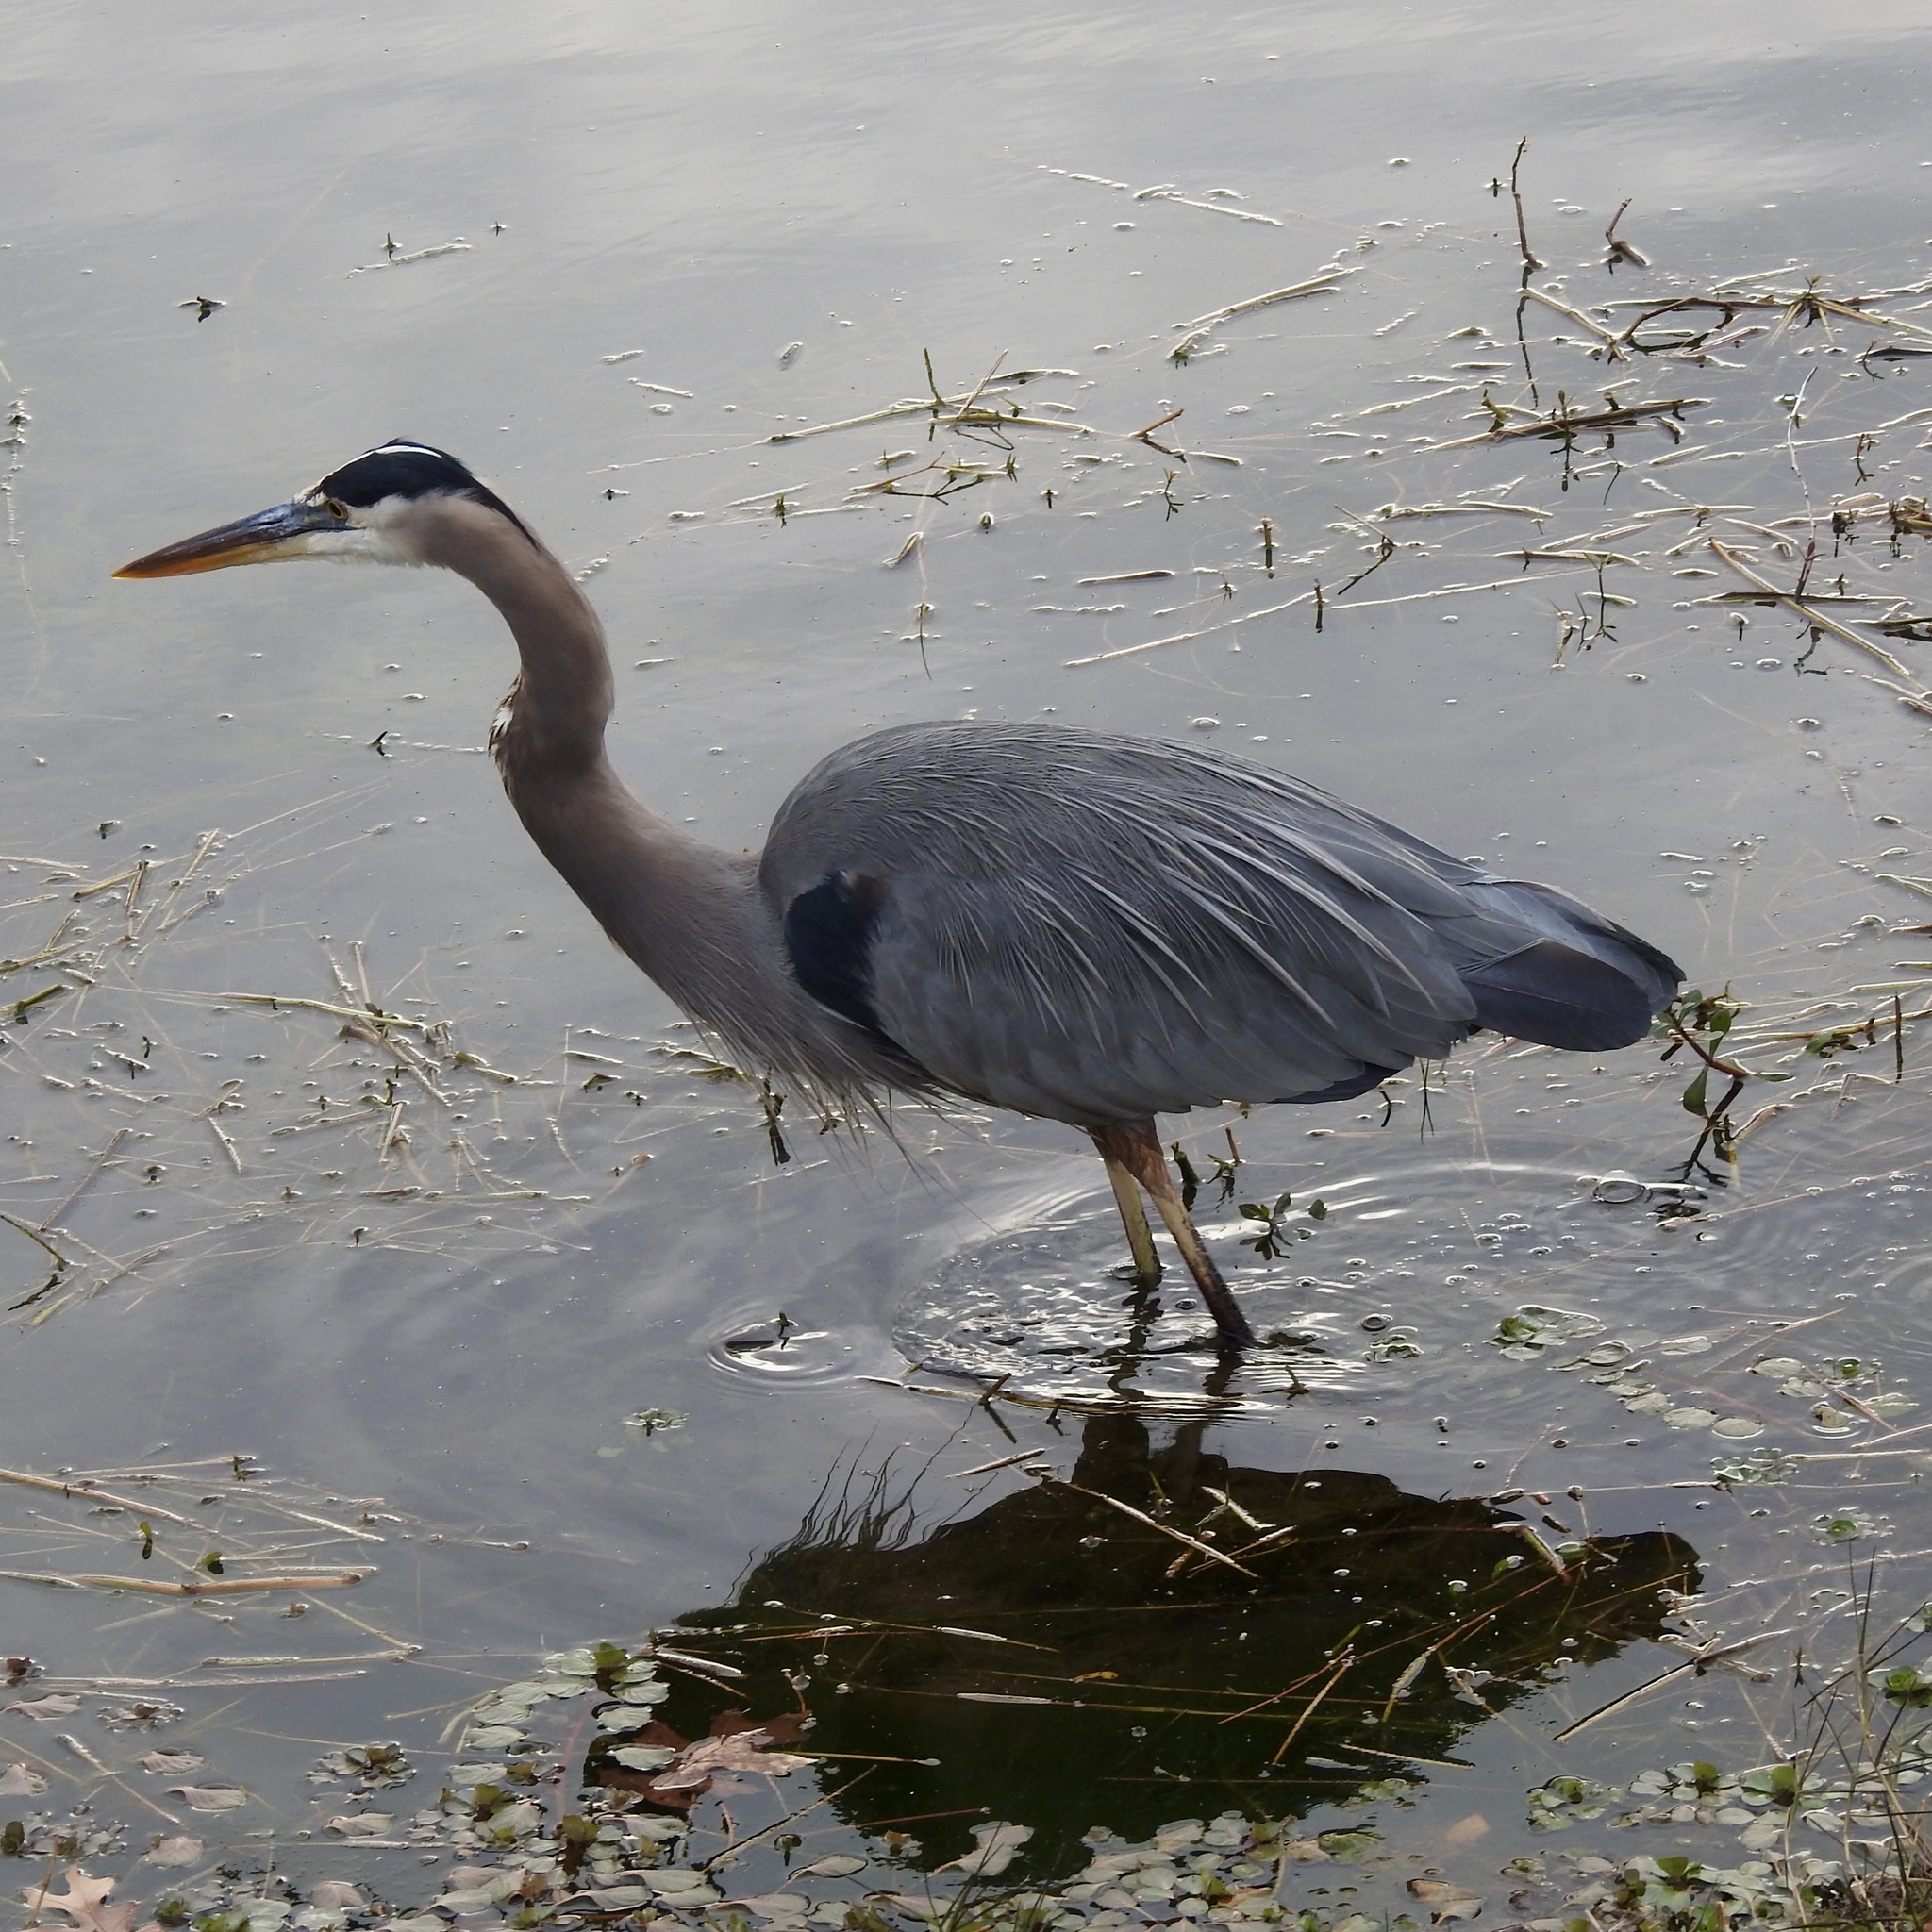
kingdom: Animalia
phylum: Chordata
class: Aves
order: Pelecaniformes
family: Ardeidae
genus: Ardea
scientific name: Ardea herodias
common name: Great blue heron
